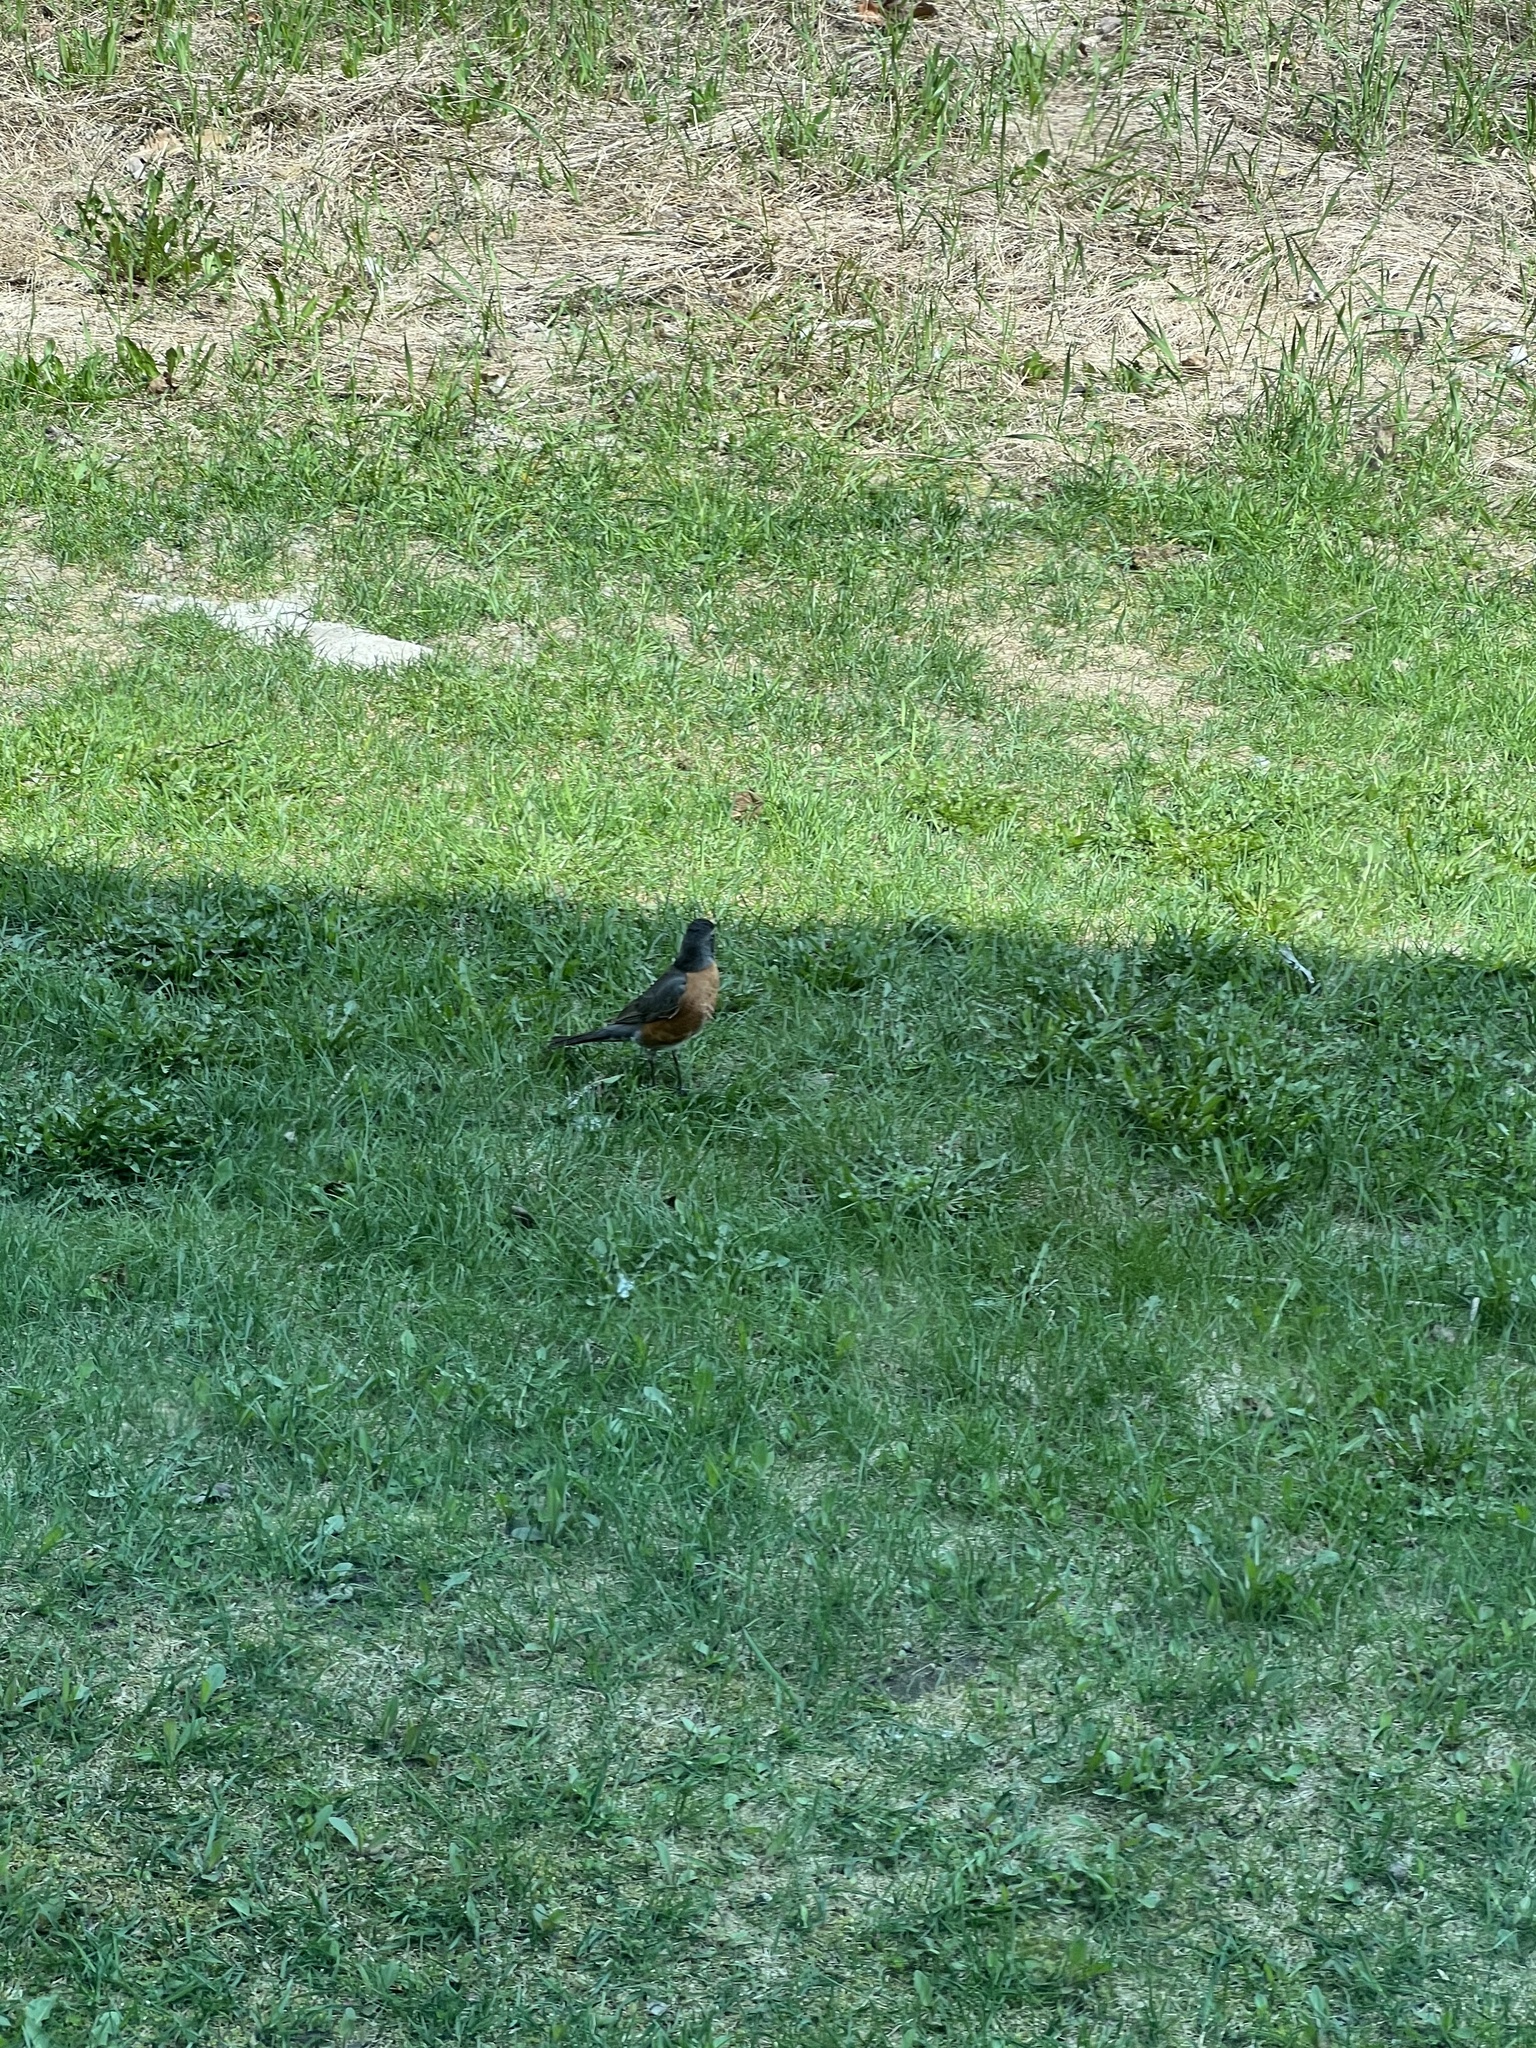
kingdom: Animalia
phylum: Chordata
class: Aves
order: Passeriformes
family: Turdidae
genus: Turdus
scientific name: Turdus migratorius
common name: American robin
